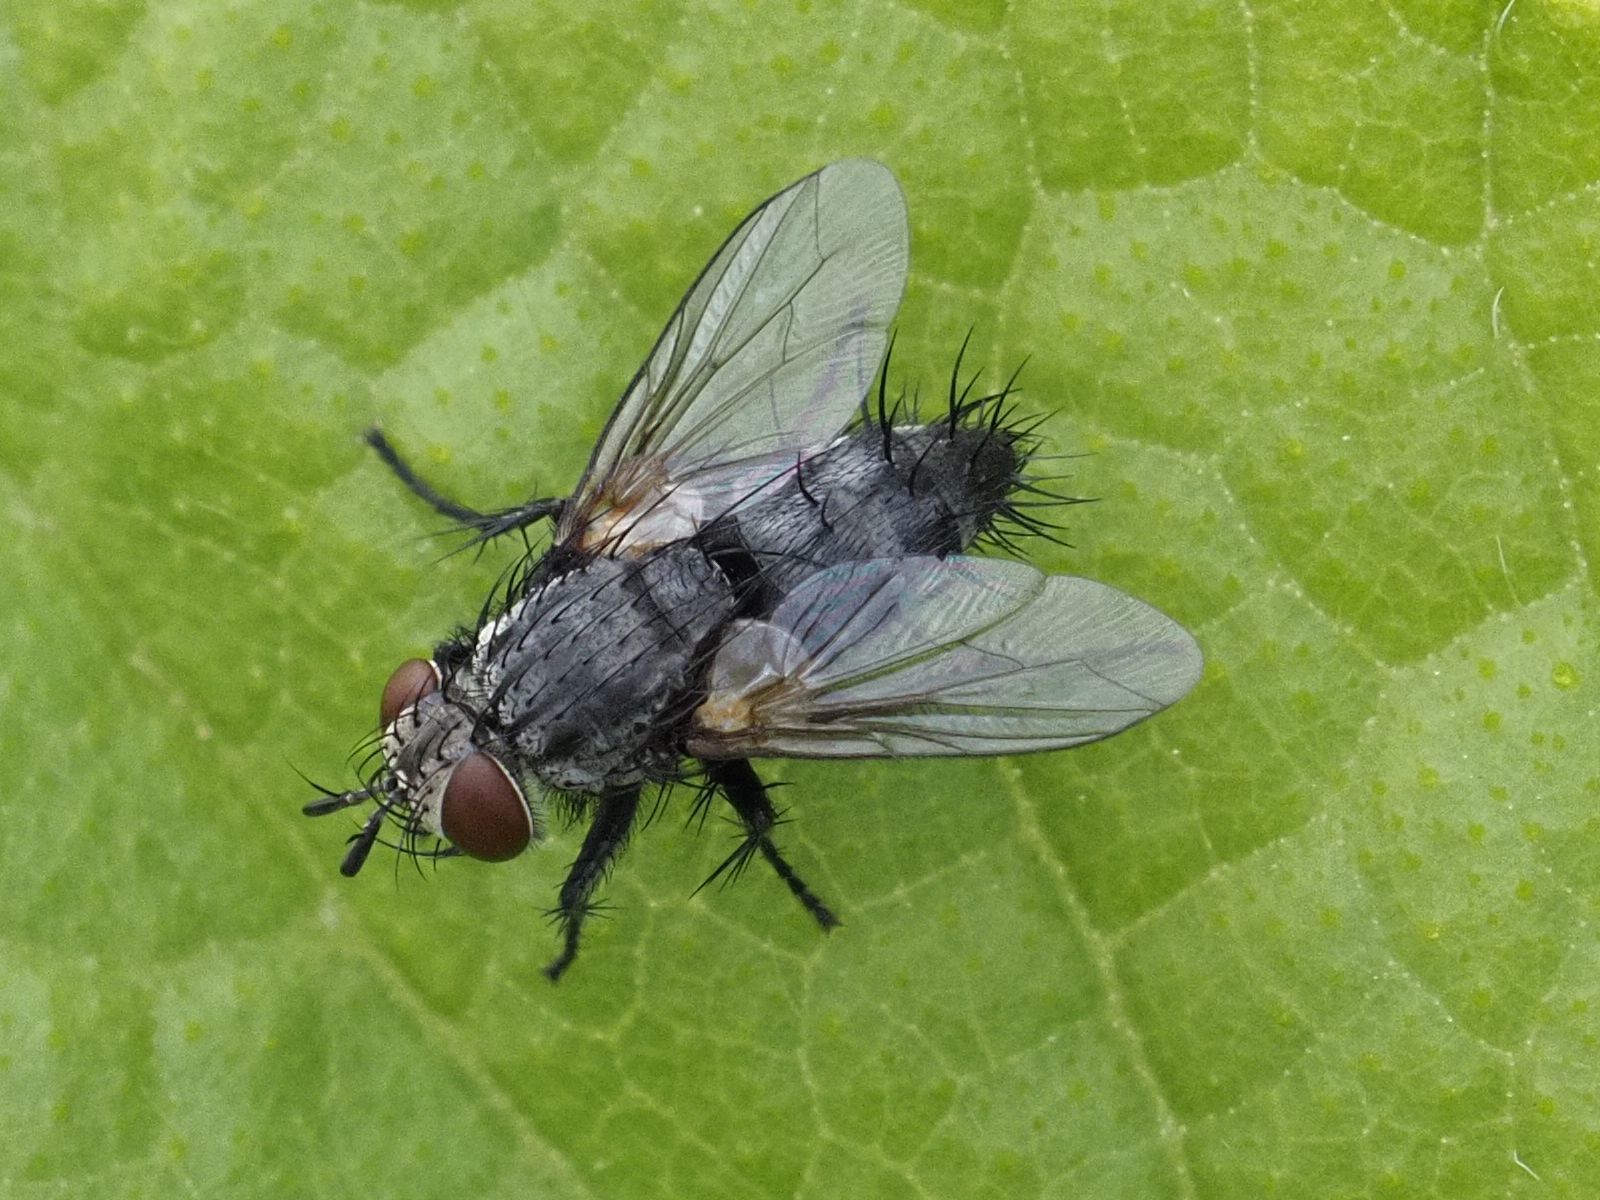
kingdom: Animalia
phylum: Arthropoda
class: Insecta
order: Diptera
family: Tachinidae
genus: Voria
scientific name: Voria ruralis
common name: Parasitic fly
